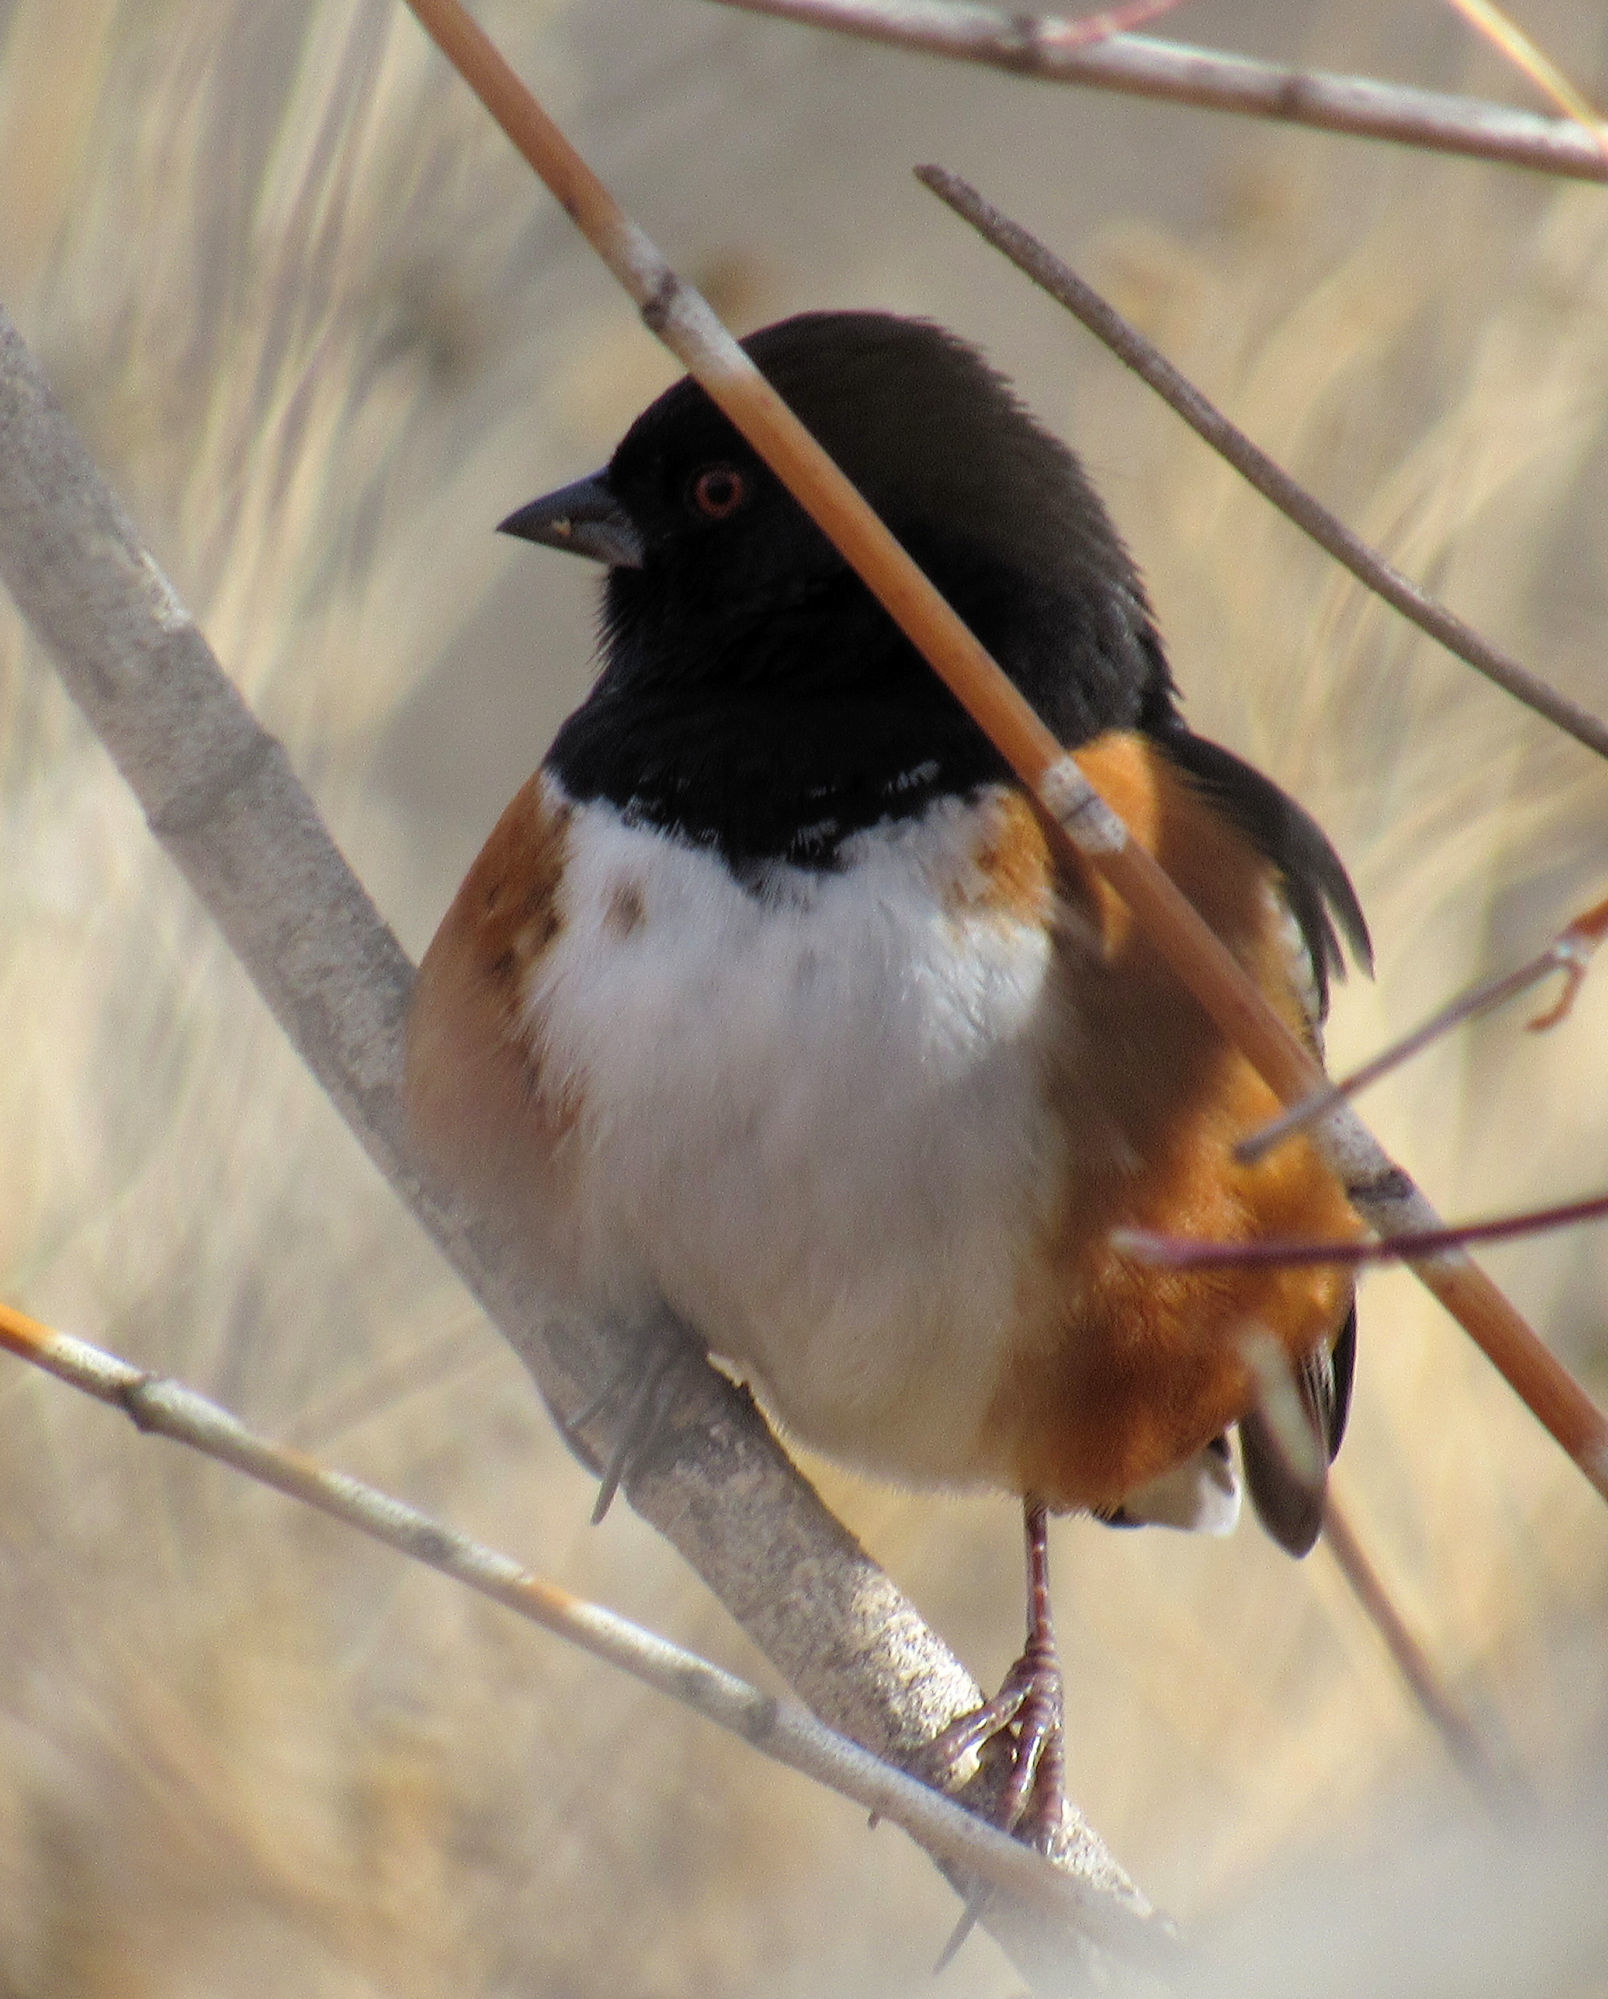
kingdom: Animalia
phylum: Chordata
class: Aves
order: Passeriformes
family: Passerellidae
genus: Pipilo
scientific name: Pipilo maculatus
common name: Spotted towhee
